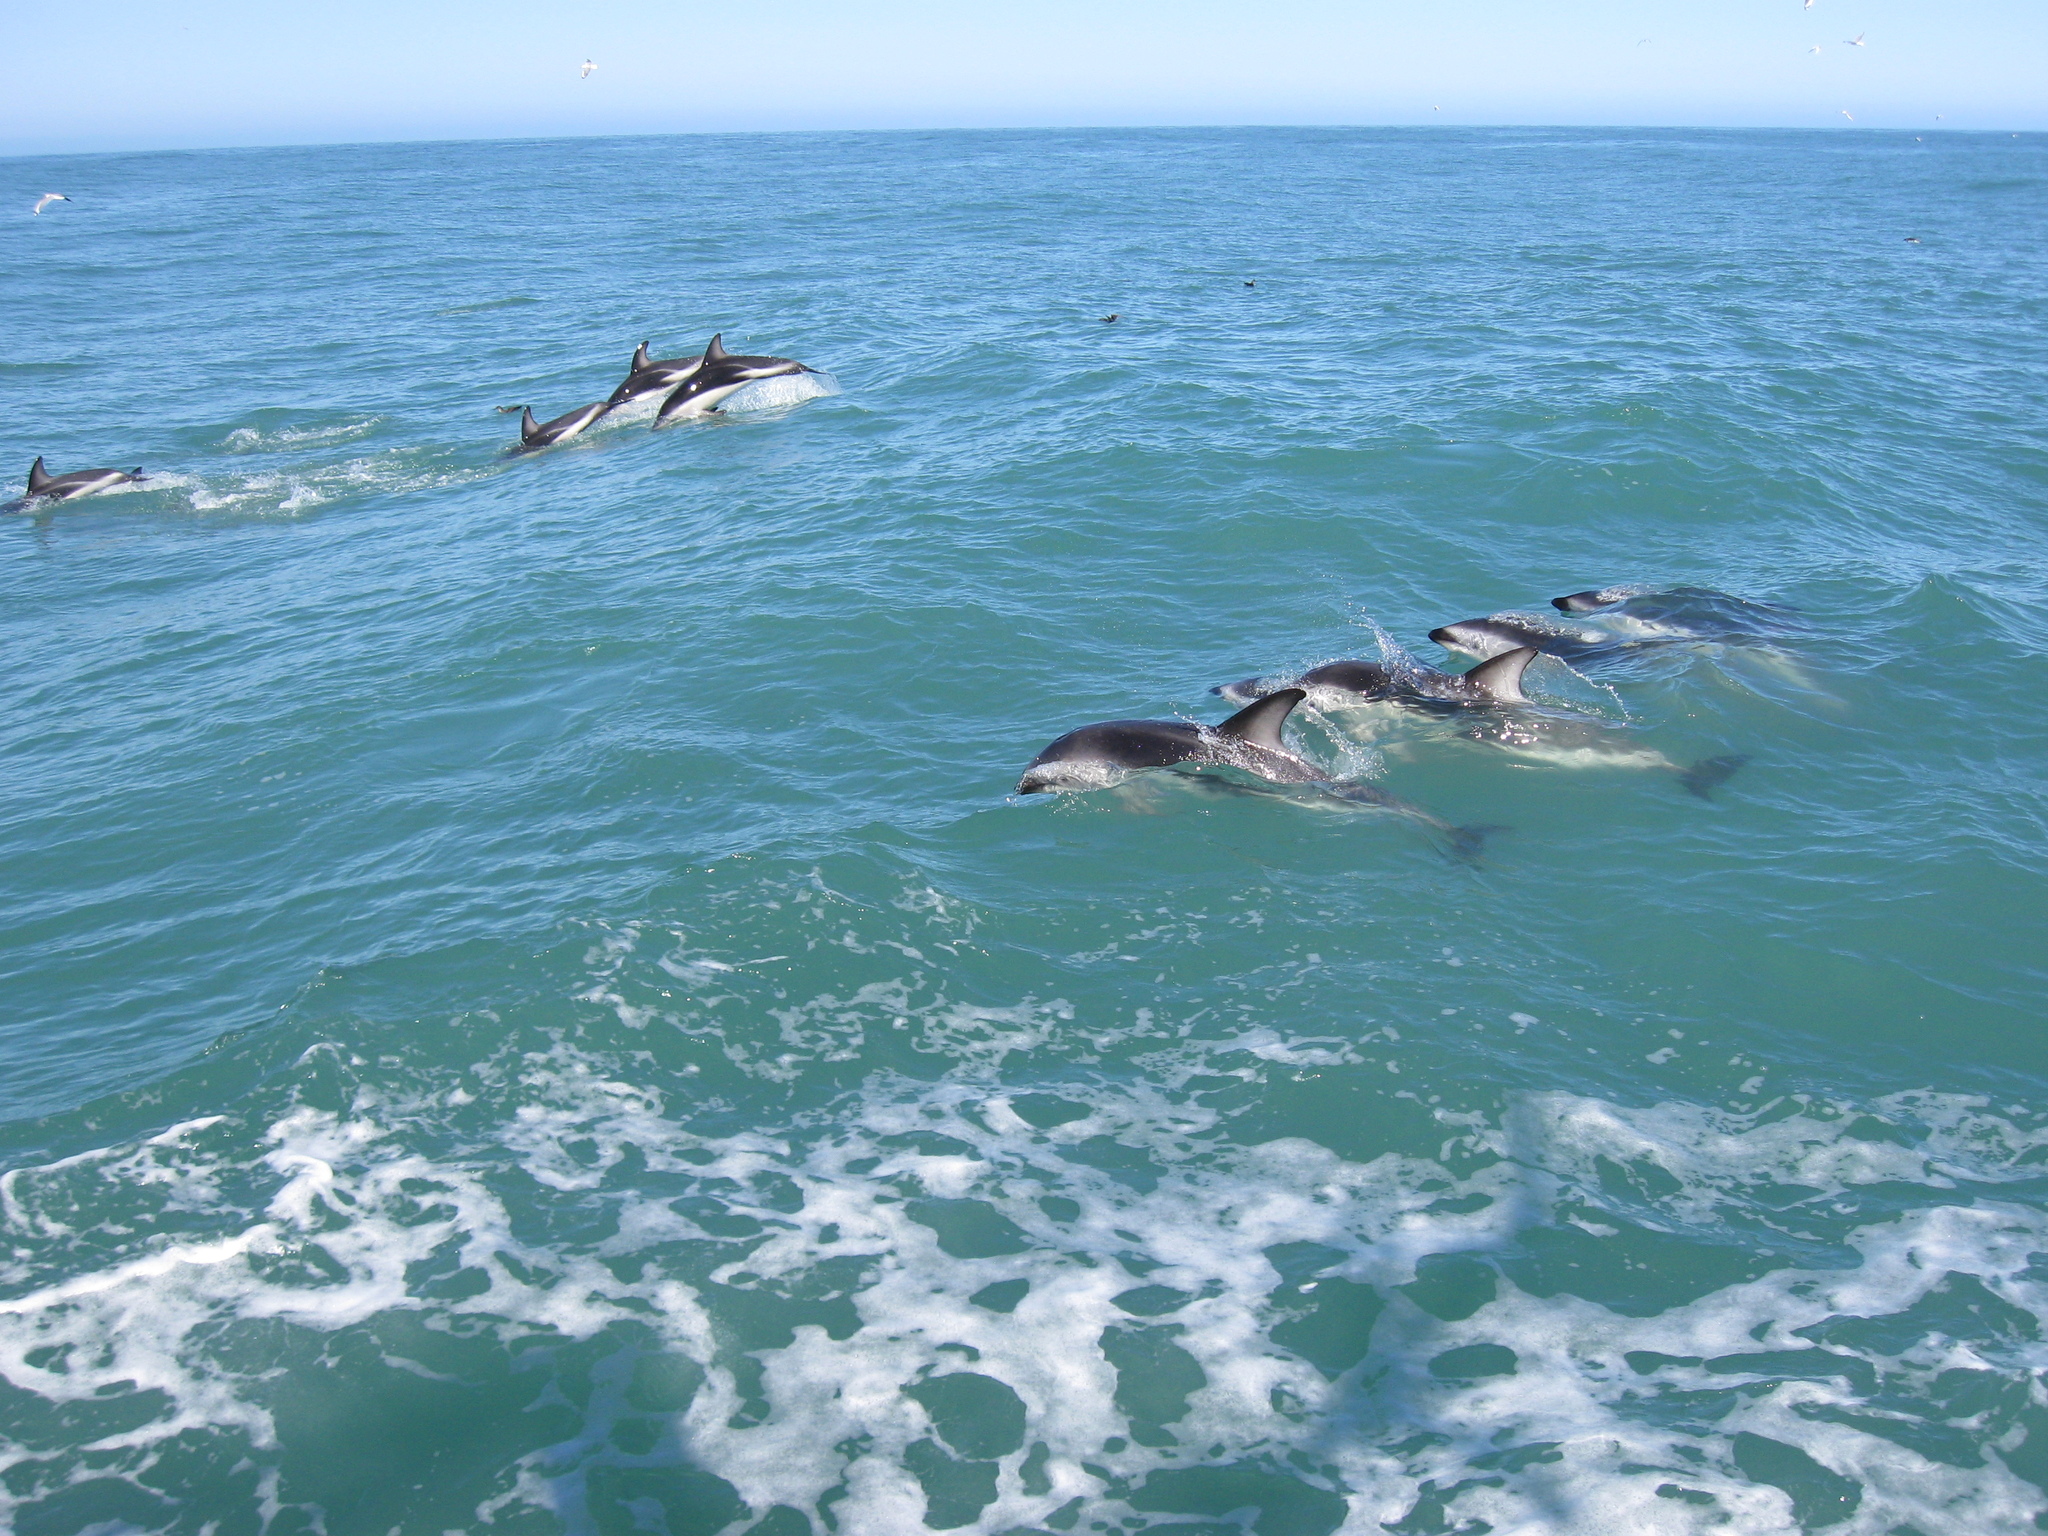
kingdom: Animalia
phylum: Chordata
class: Mammalia
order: Cetacea
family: Delphinidae
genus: Lagenorhynchus
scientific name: Lagenorhynchus obscurus
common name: Dusky dolphin
